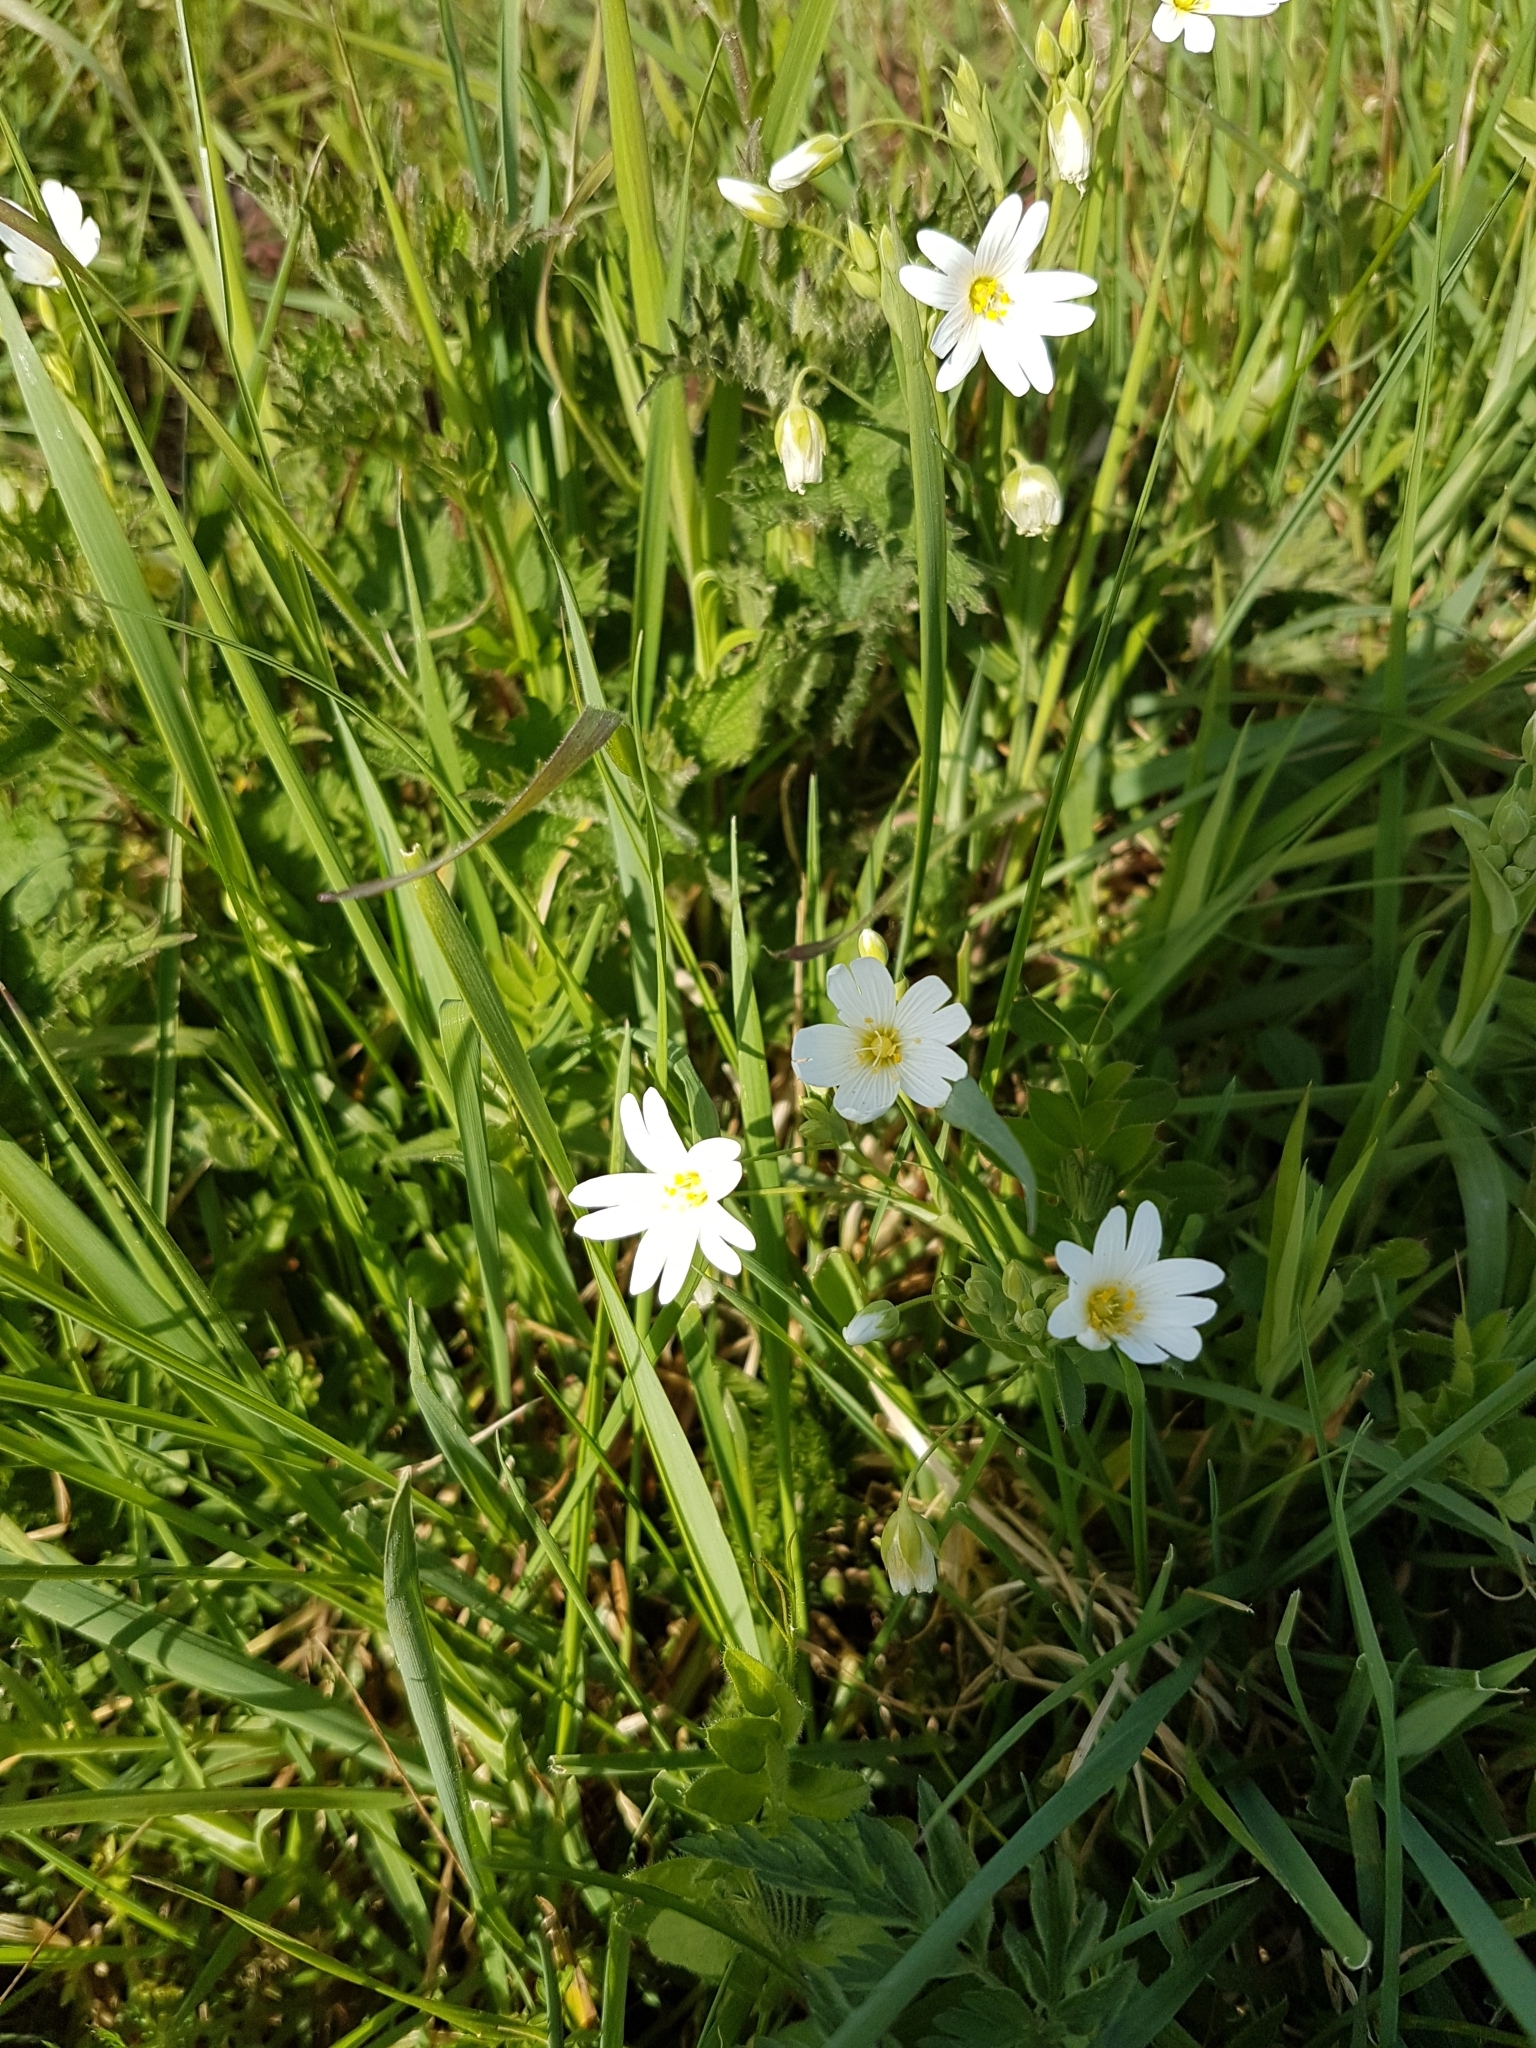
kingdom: Plantae
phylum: Tracheophyta
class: Magnoliopsida
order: Caryophyllales
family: Caryophyllaceae
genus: Rabelera
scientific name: Rabelera holostea
